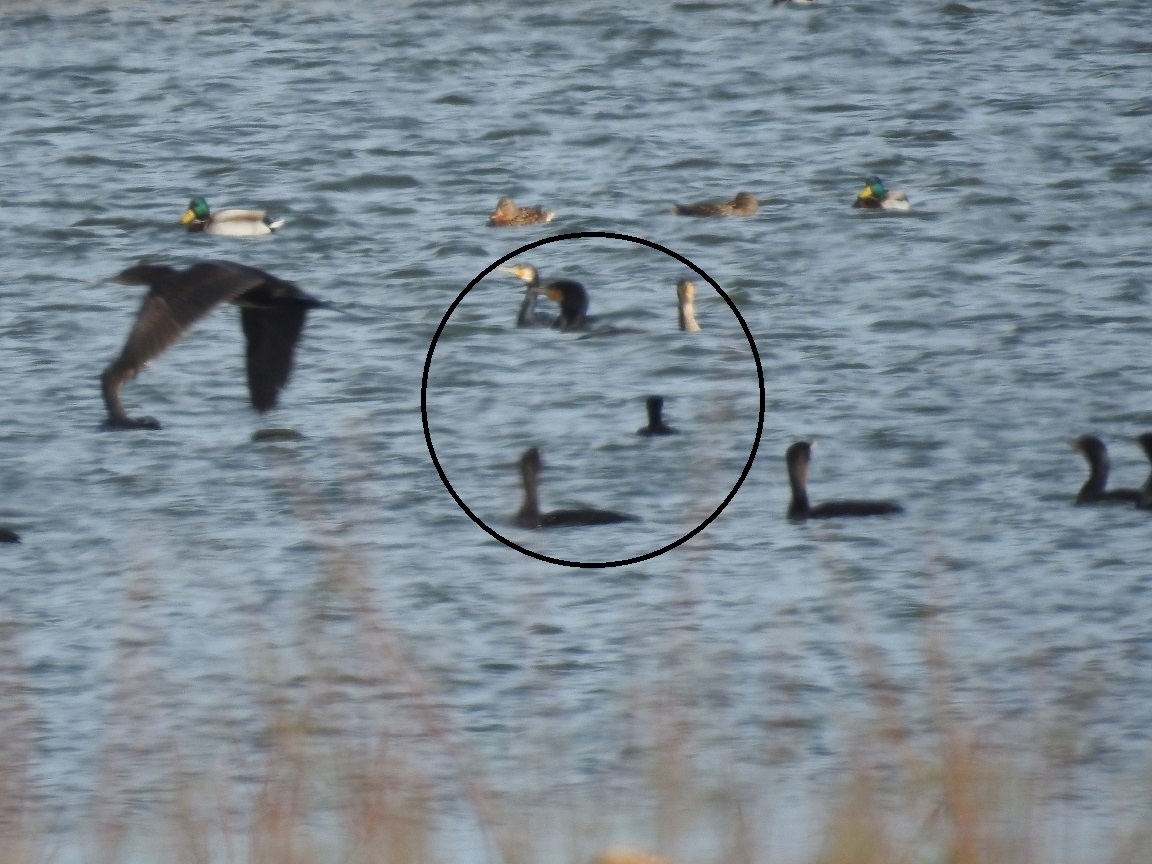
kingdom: Animalia
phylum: Chordata
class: Aves
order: Suliformes
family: Phalacrocoracidae
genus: Phalacrocorax
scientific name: Phalacrocorax carbo
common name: Great cormorant
